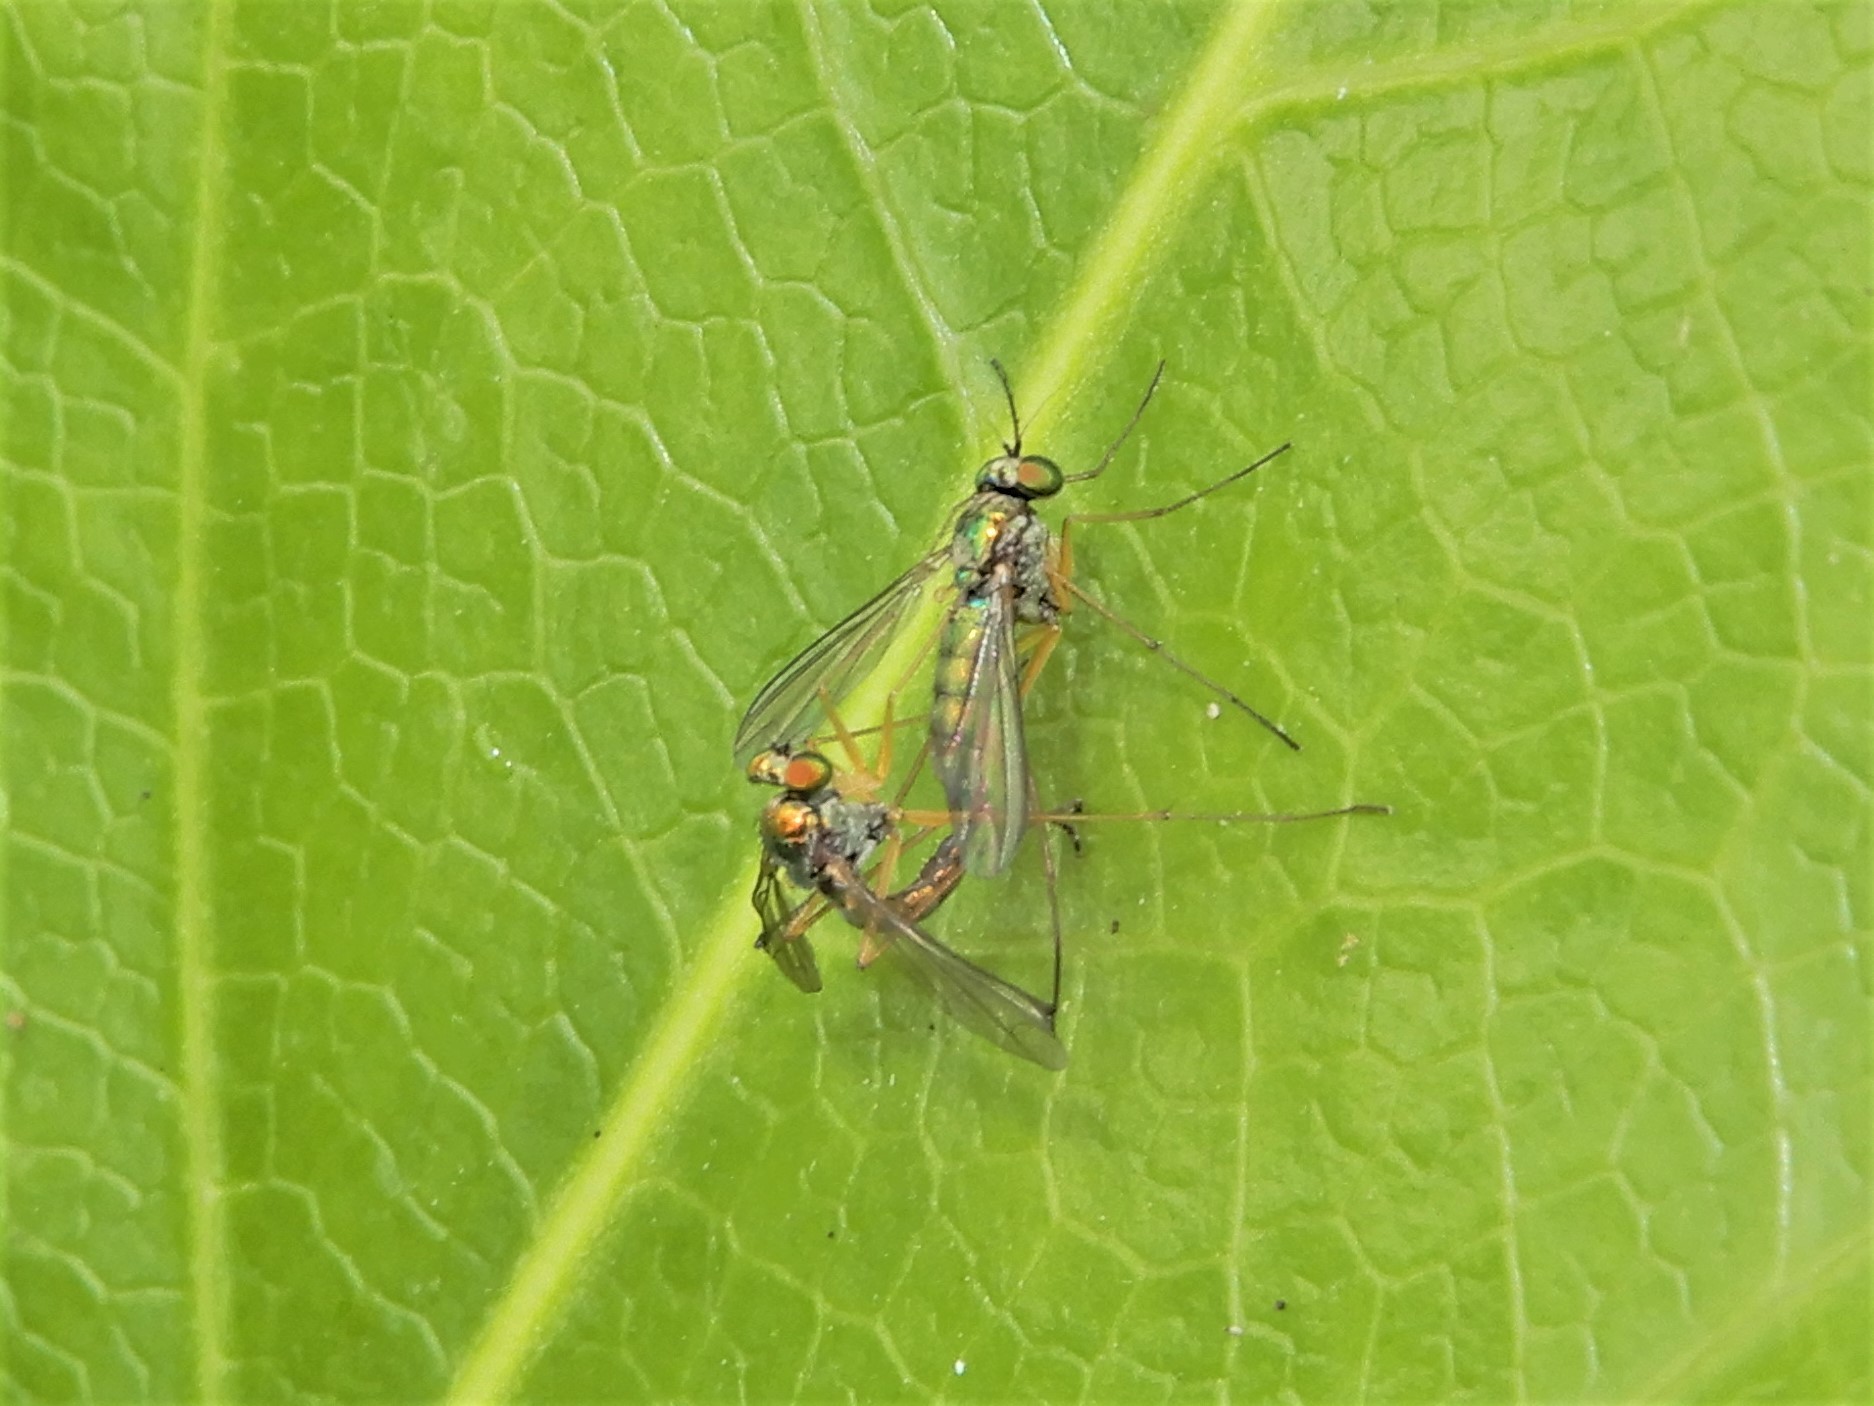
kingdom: Animalia
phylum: Arthropoda
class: Insecta
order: Diptera
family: Dolichopodidae
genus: Parentia
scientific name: Parentia anomalicosta
